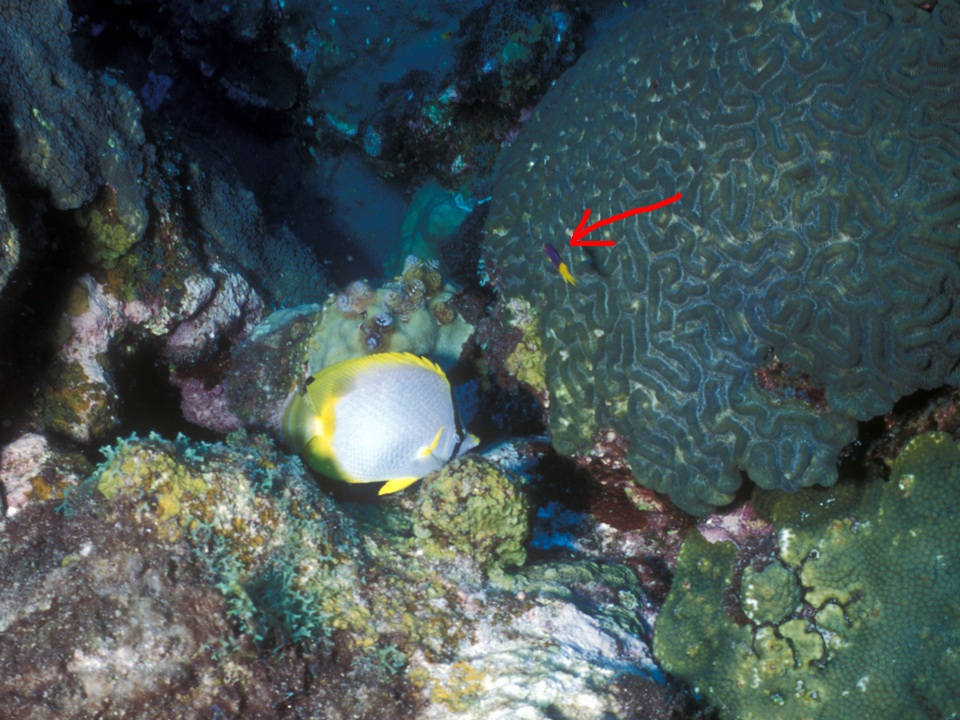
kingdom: Animalia
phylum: Chordata
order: Perciformes
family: Labridae
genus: Bodianus
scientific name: Bodianus rufus
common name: Spanish hogfish
